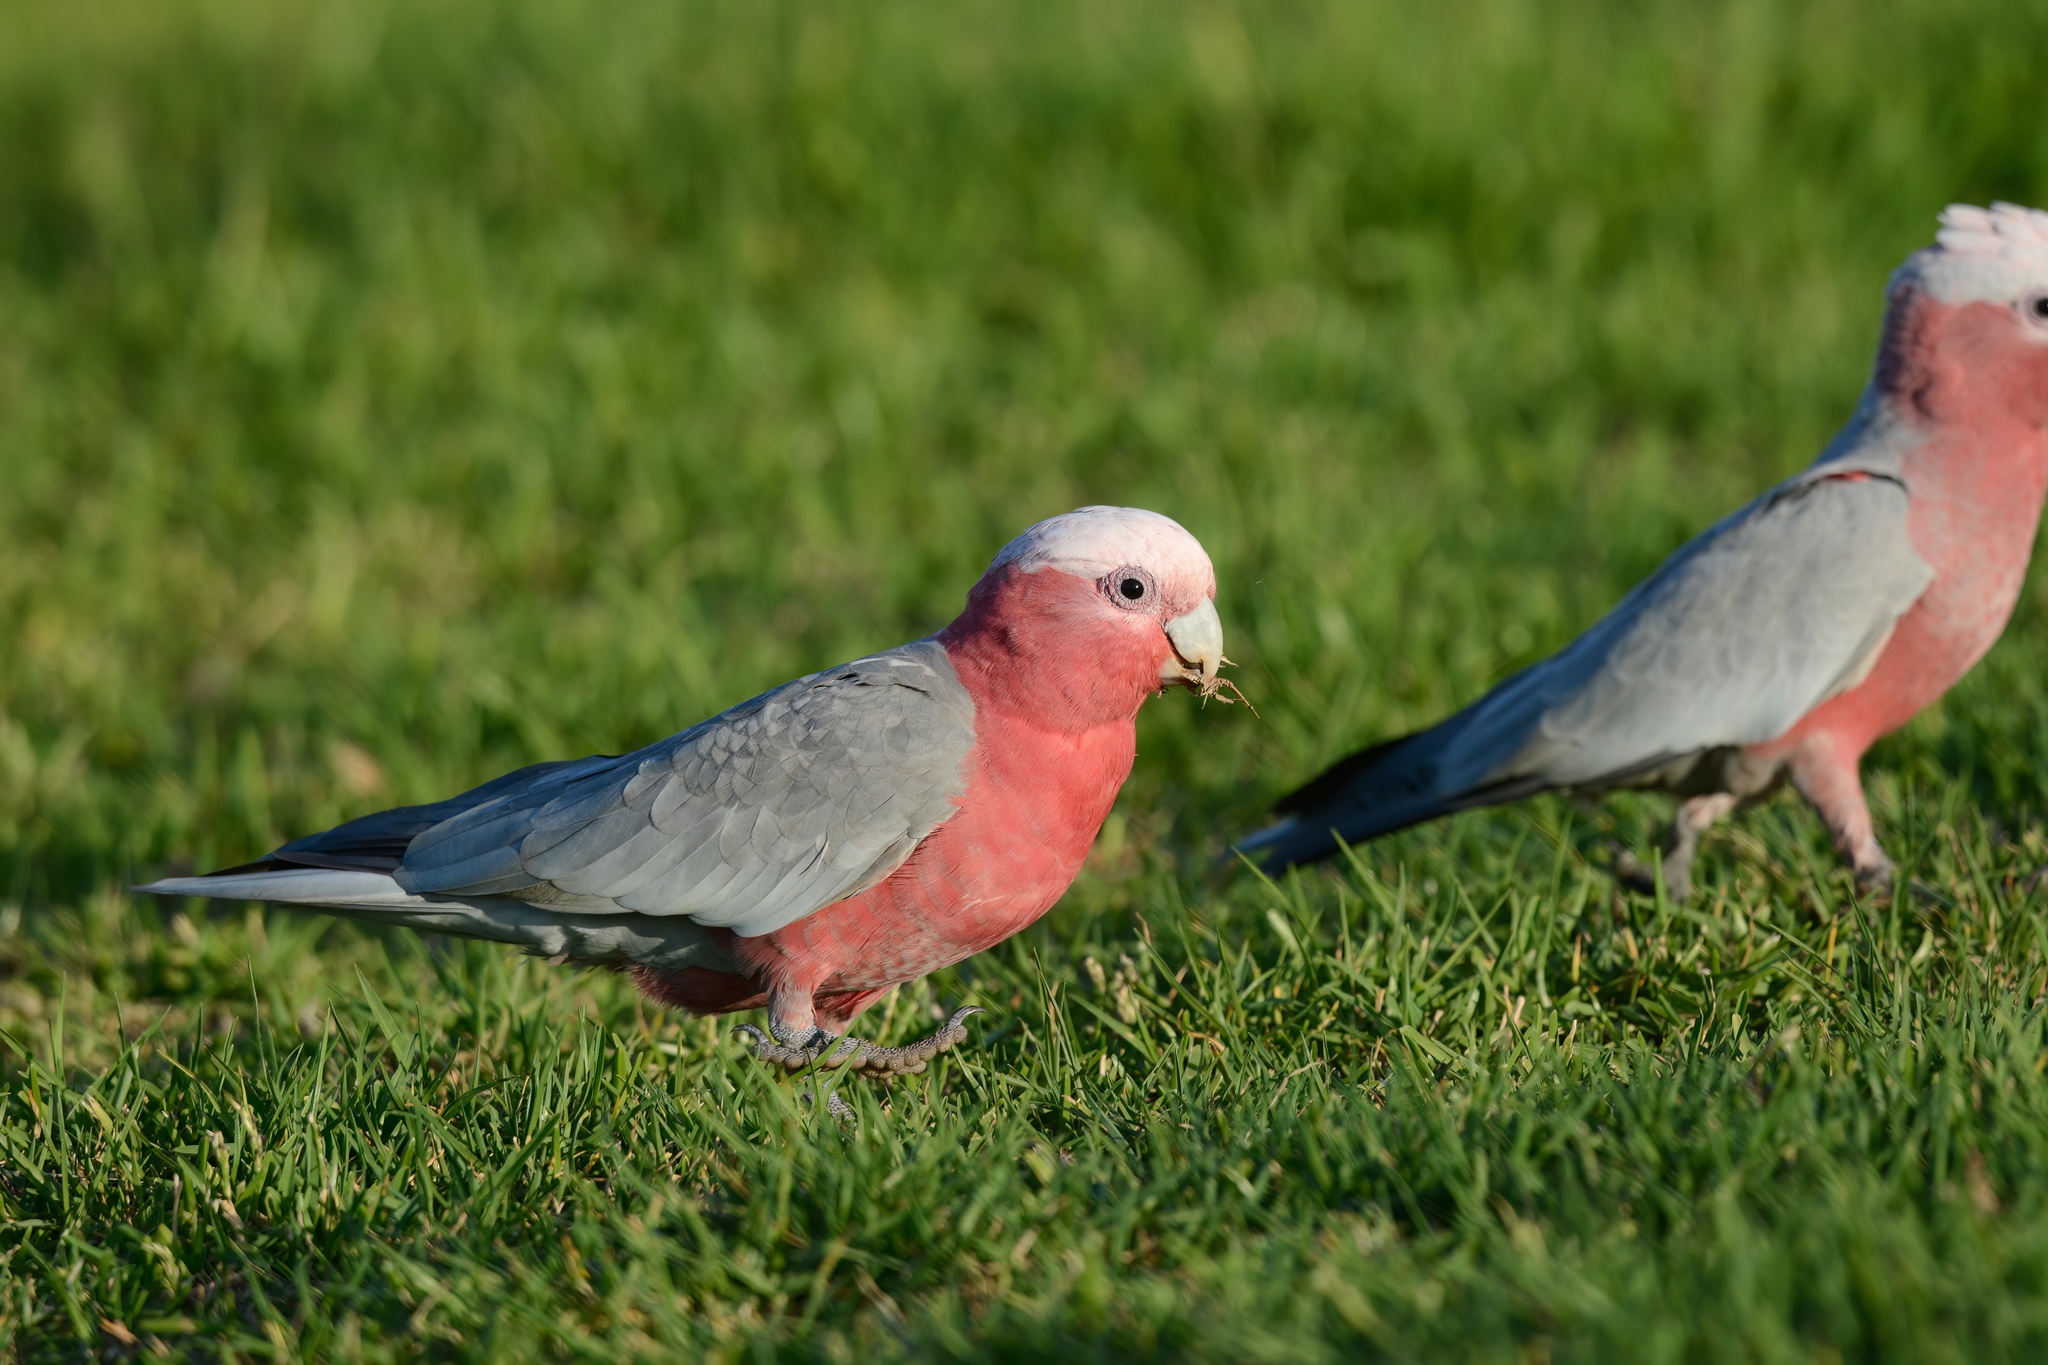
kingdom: Animalia
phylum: Chordata
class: Aves
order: Psittaciformes
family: Psittacidae
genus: Eolophus
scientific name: Eolophus roseicapilla
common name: Galah
